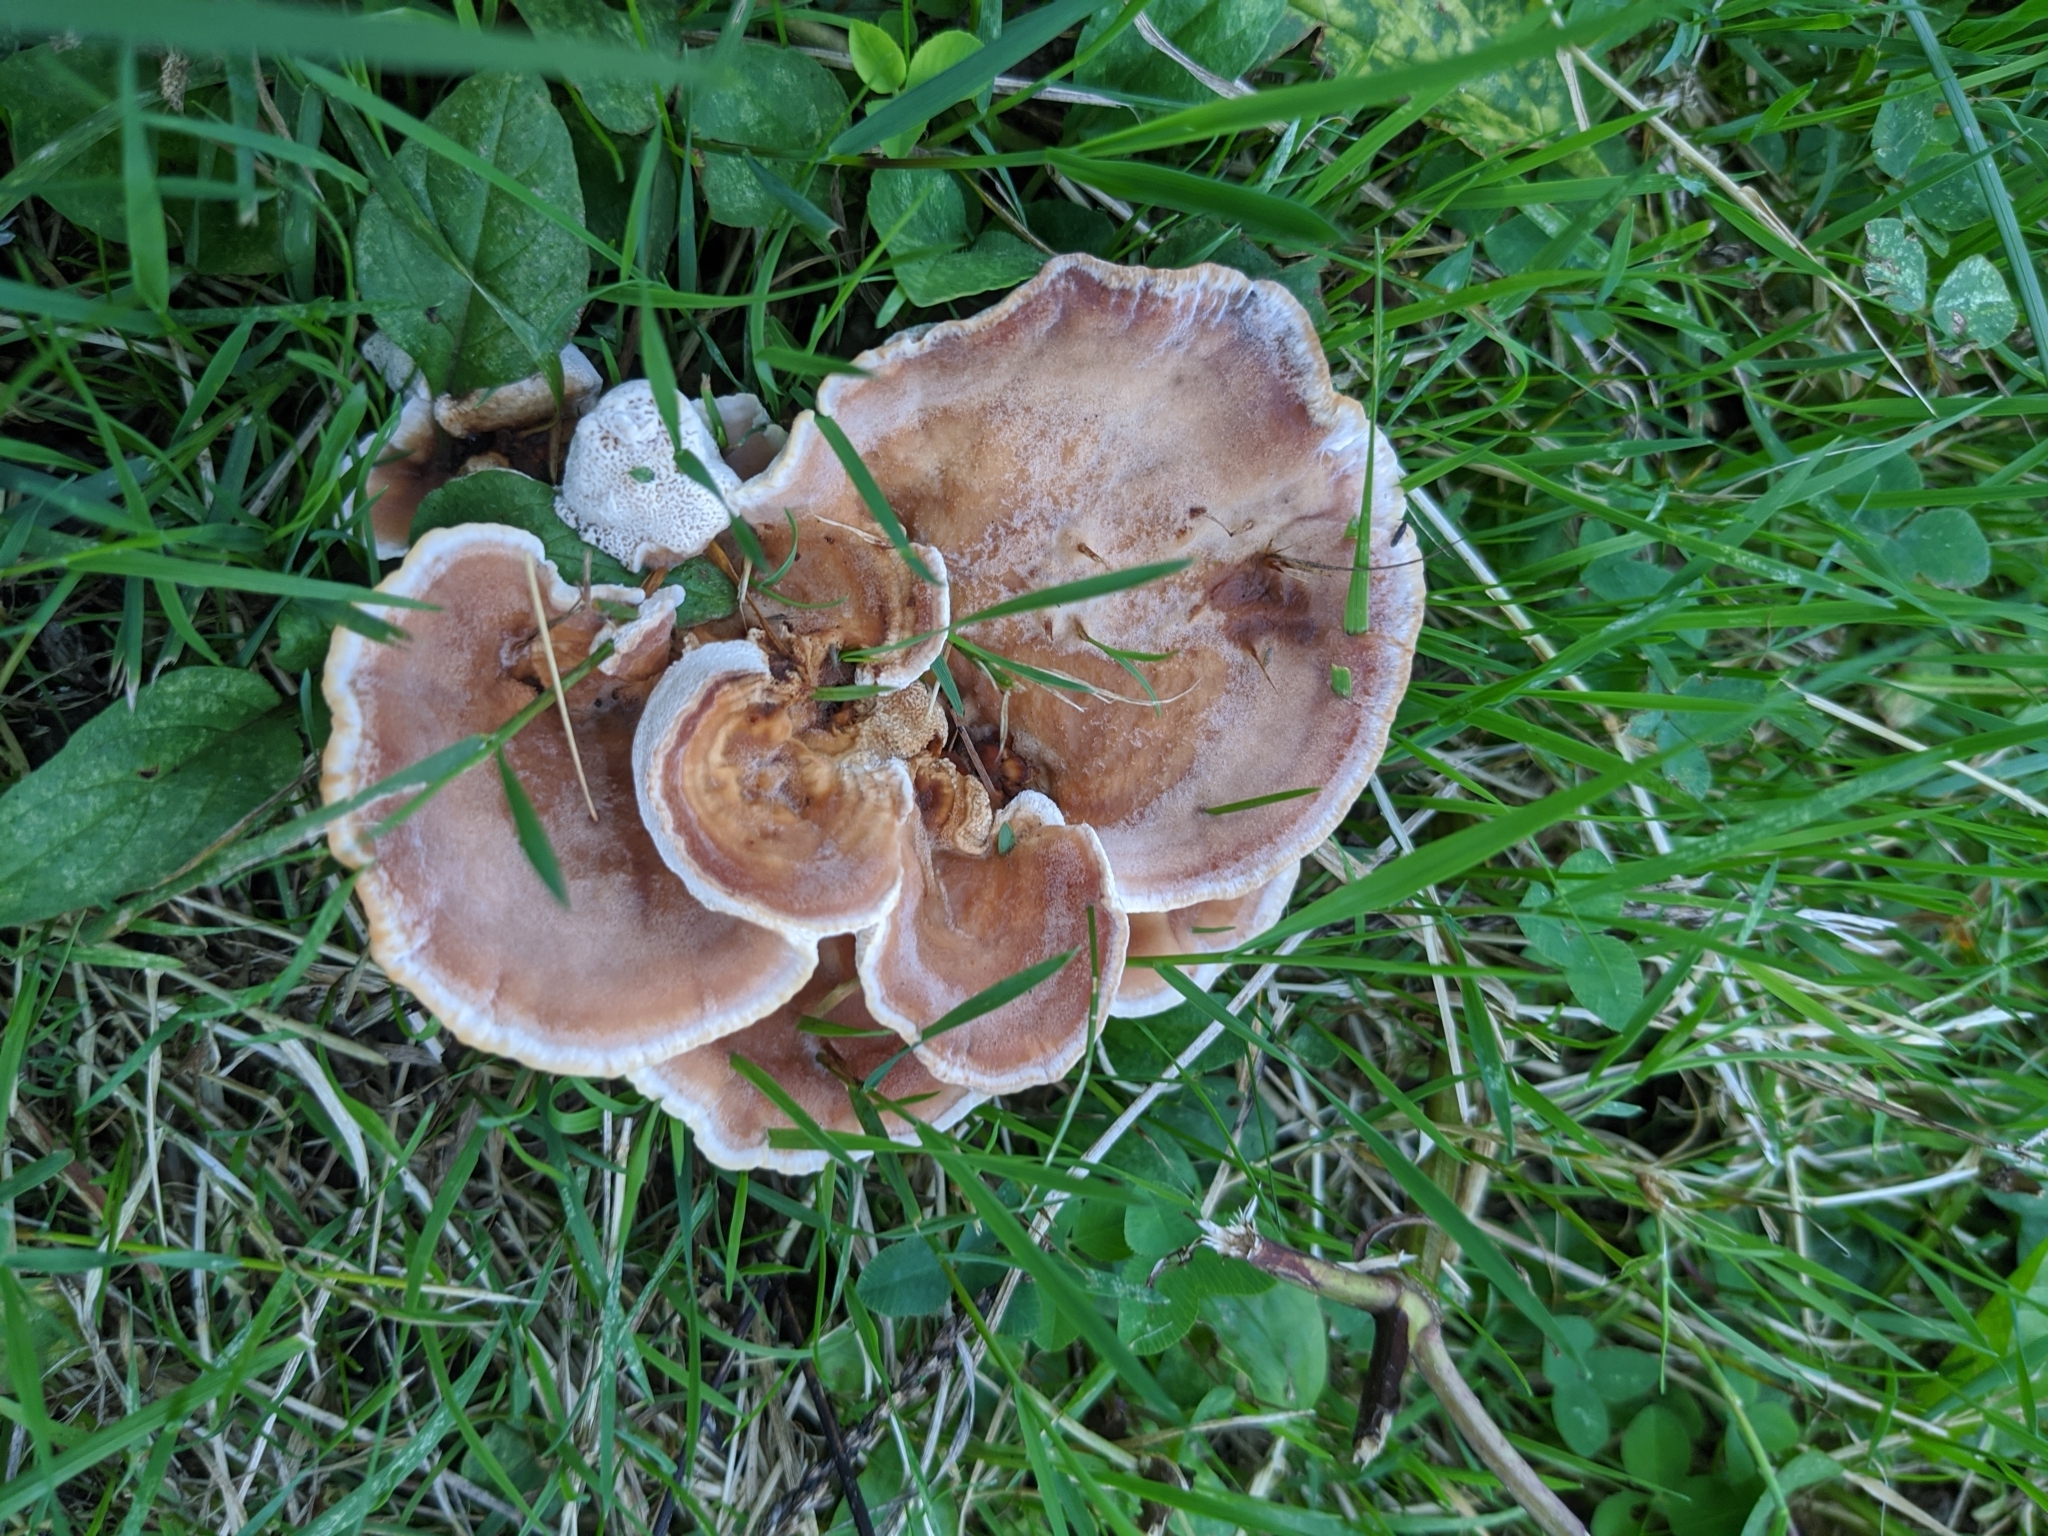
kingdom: Fungi
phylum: Basidiomycota
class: Agaricomycetes
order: Russulales
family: Bondarzewiaceae
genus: Bondarzewia
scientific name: Bondarzewia berkeleyi
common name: Berkeley's polypore
